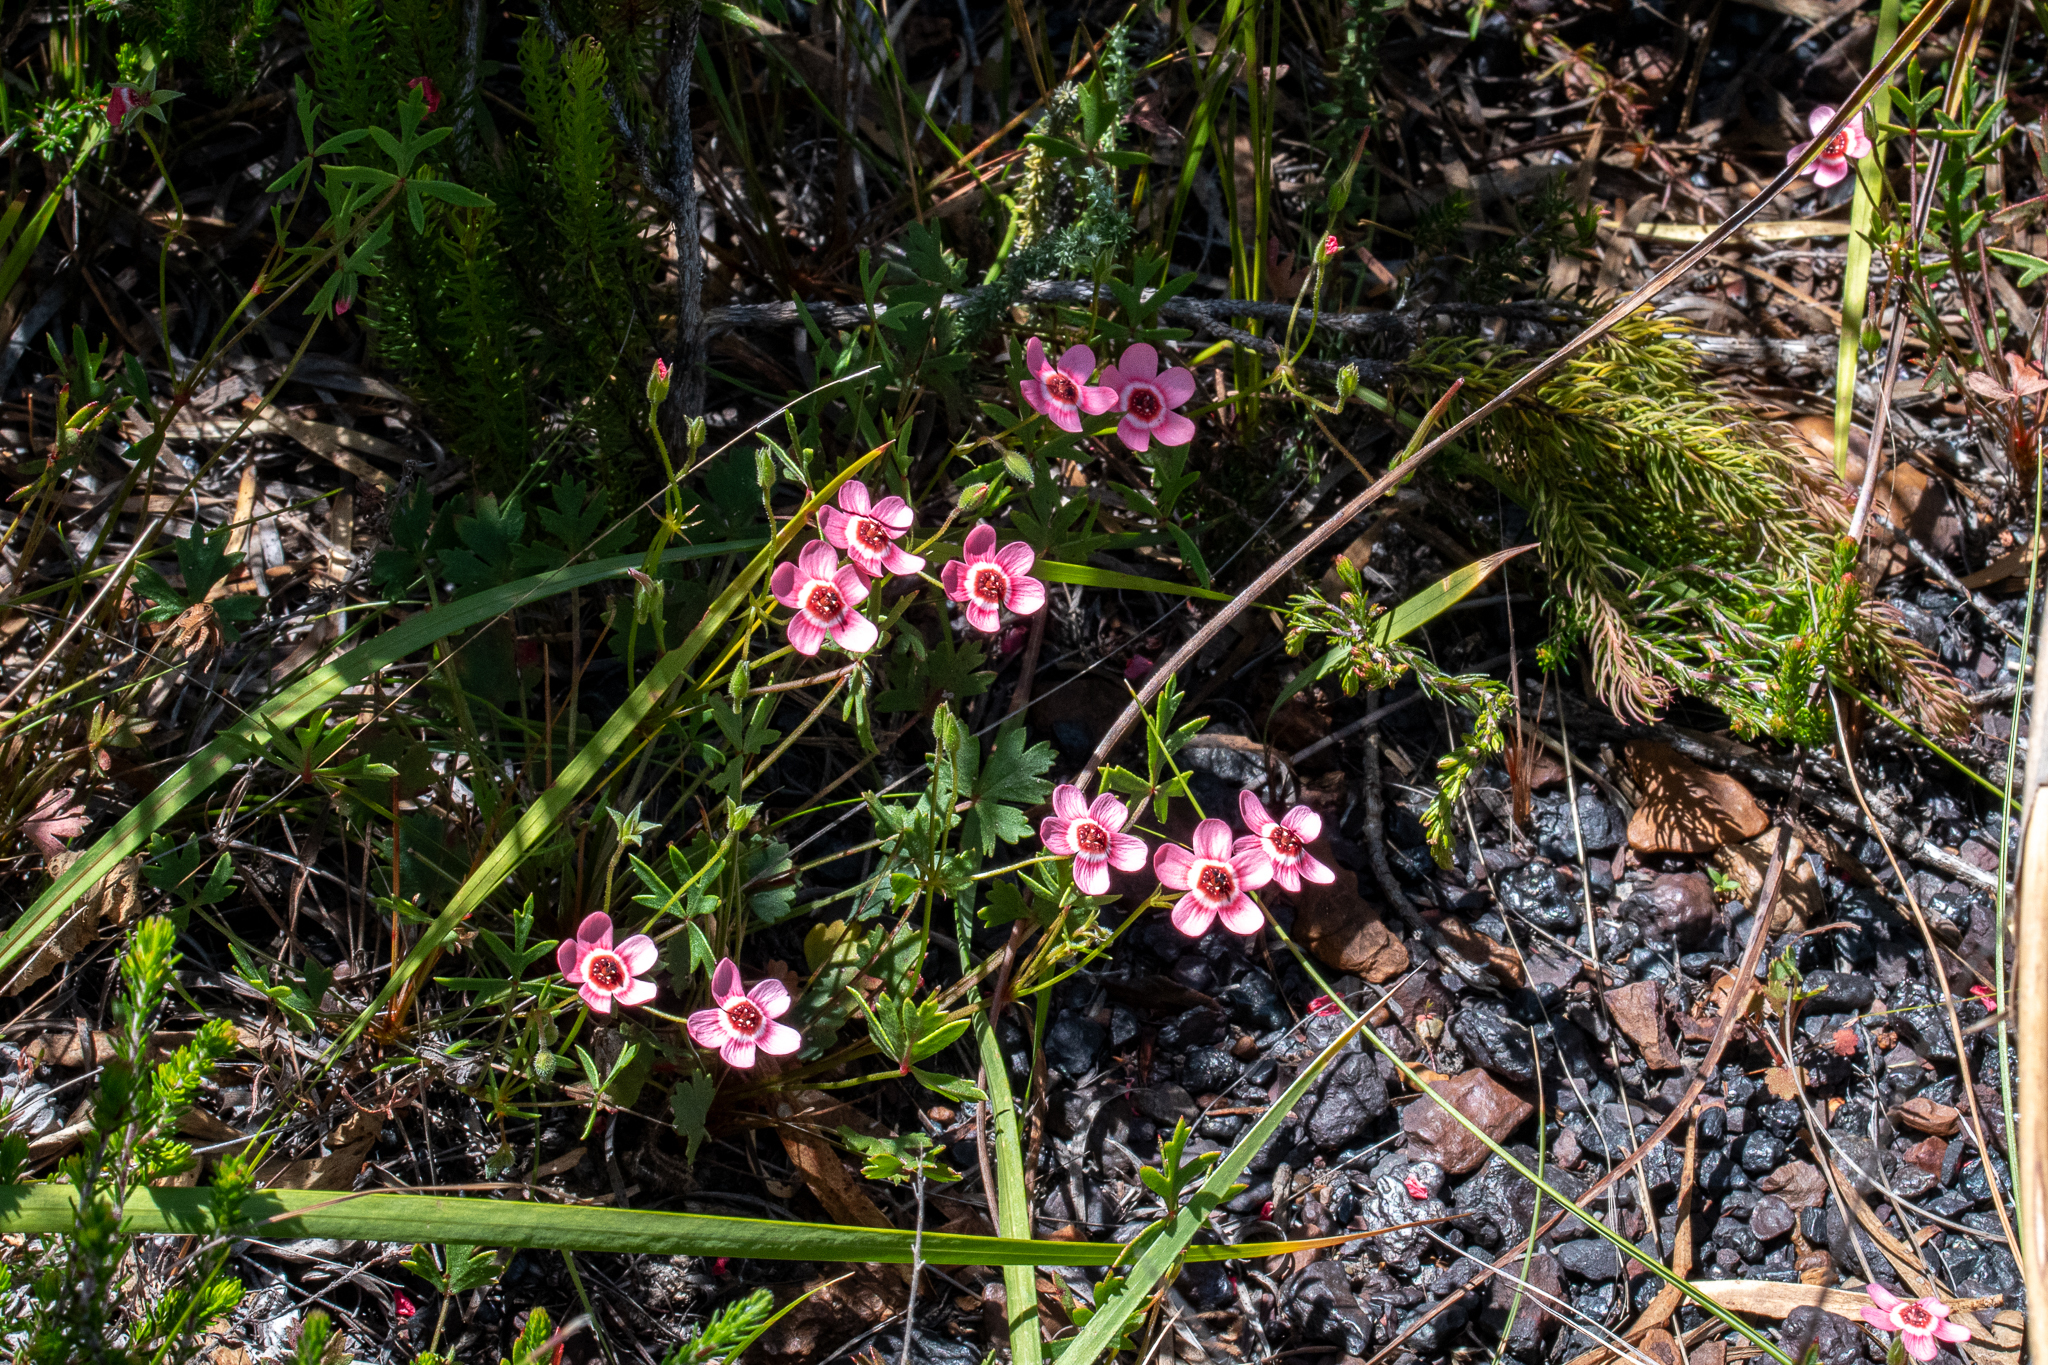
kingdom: Plantae
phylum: Tracheophyta
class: Magnoliopsida
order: Geraniales
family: Geraniaceae
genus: Pelargonium
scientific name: Pelargonium incarnatum
